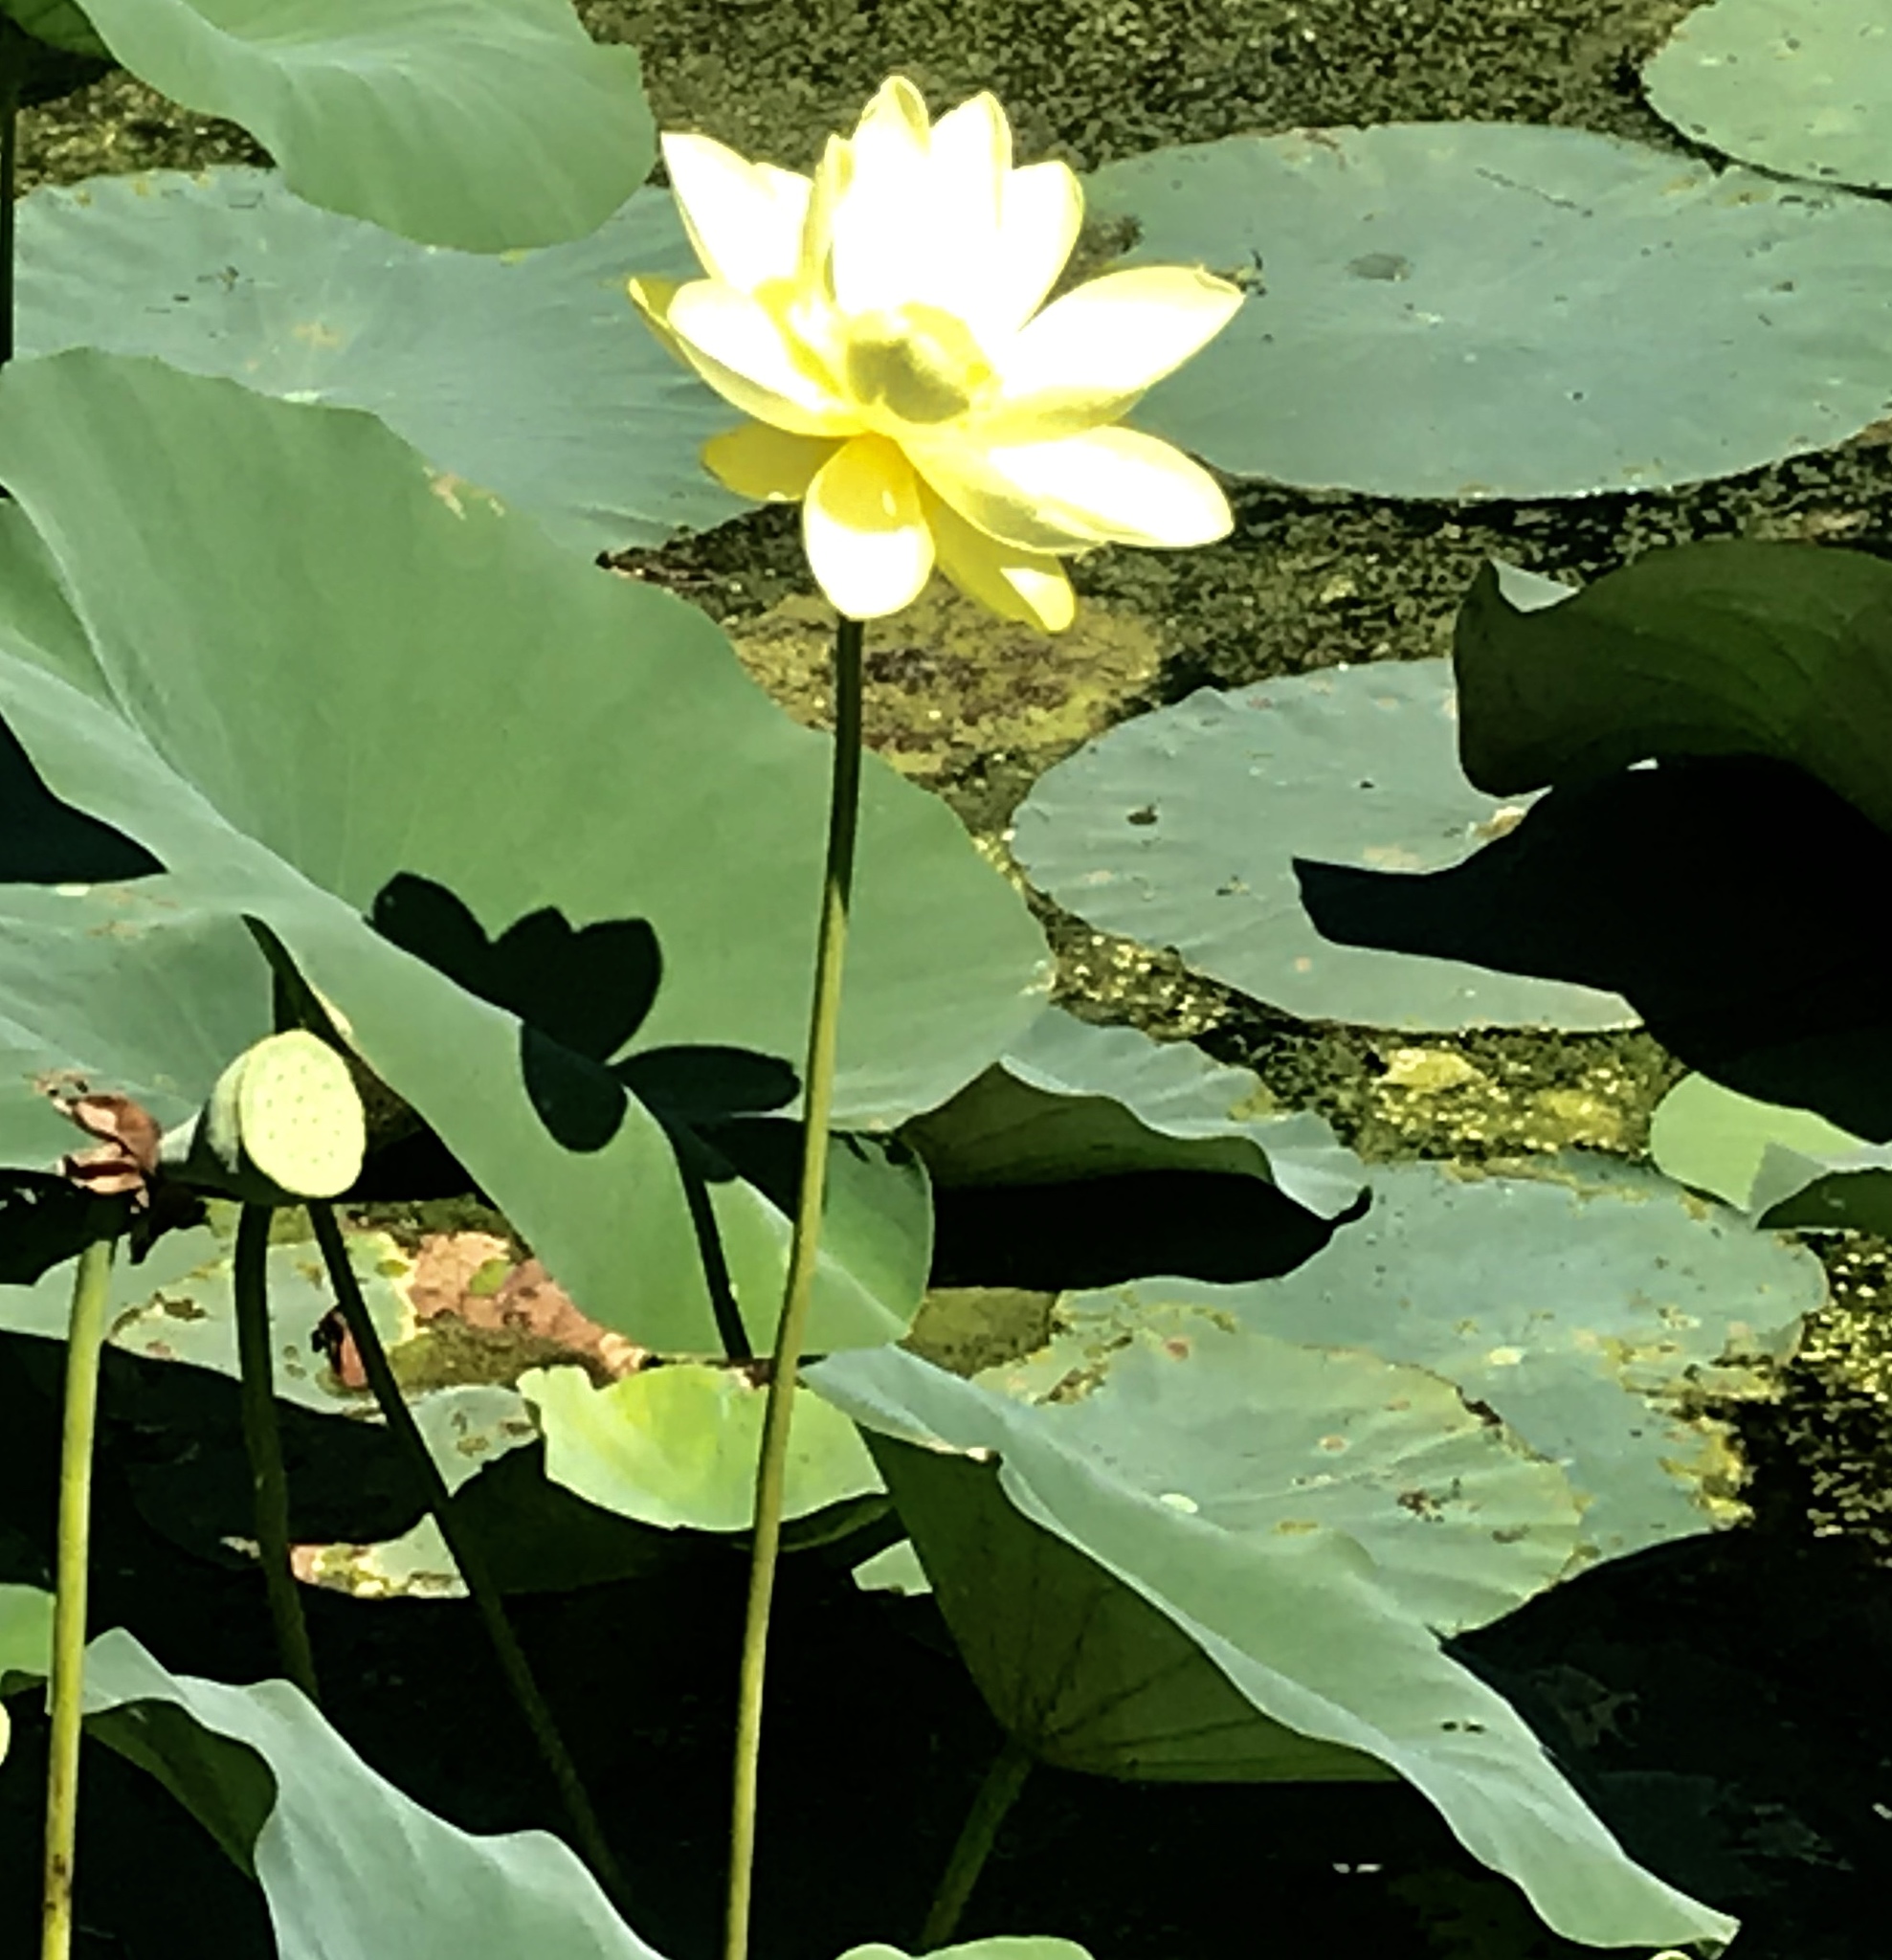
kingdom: Plantae
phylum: Tracheophyta
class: Magnoliopsida
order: Proteales
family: Nelumbonaceae
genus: Nelumbo
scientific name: Nelumbo lutea
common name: American lotus
